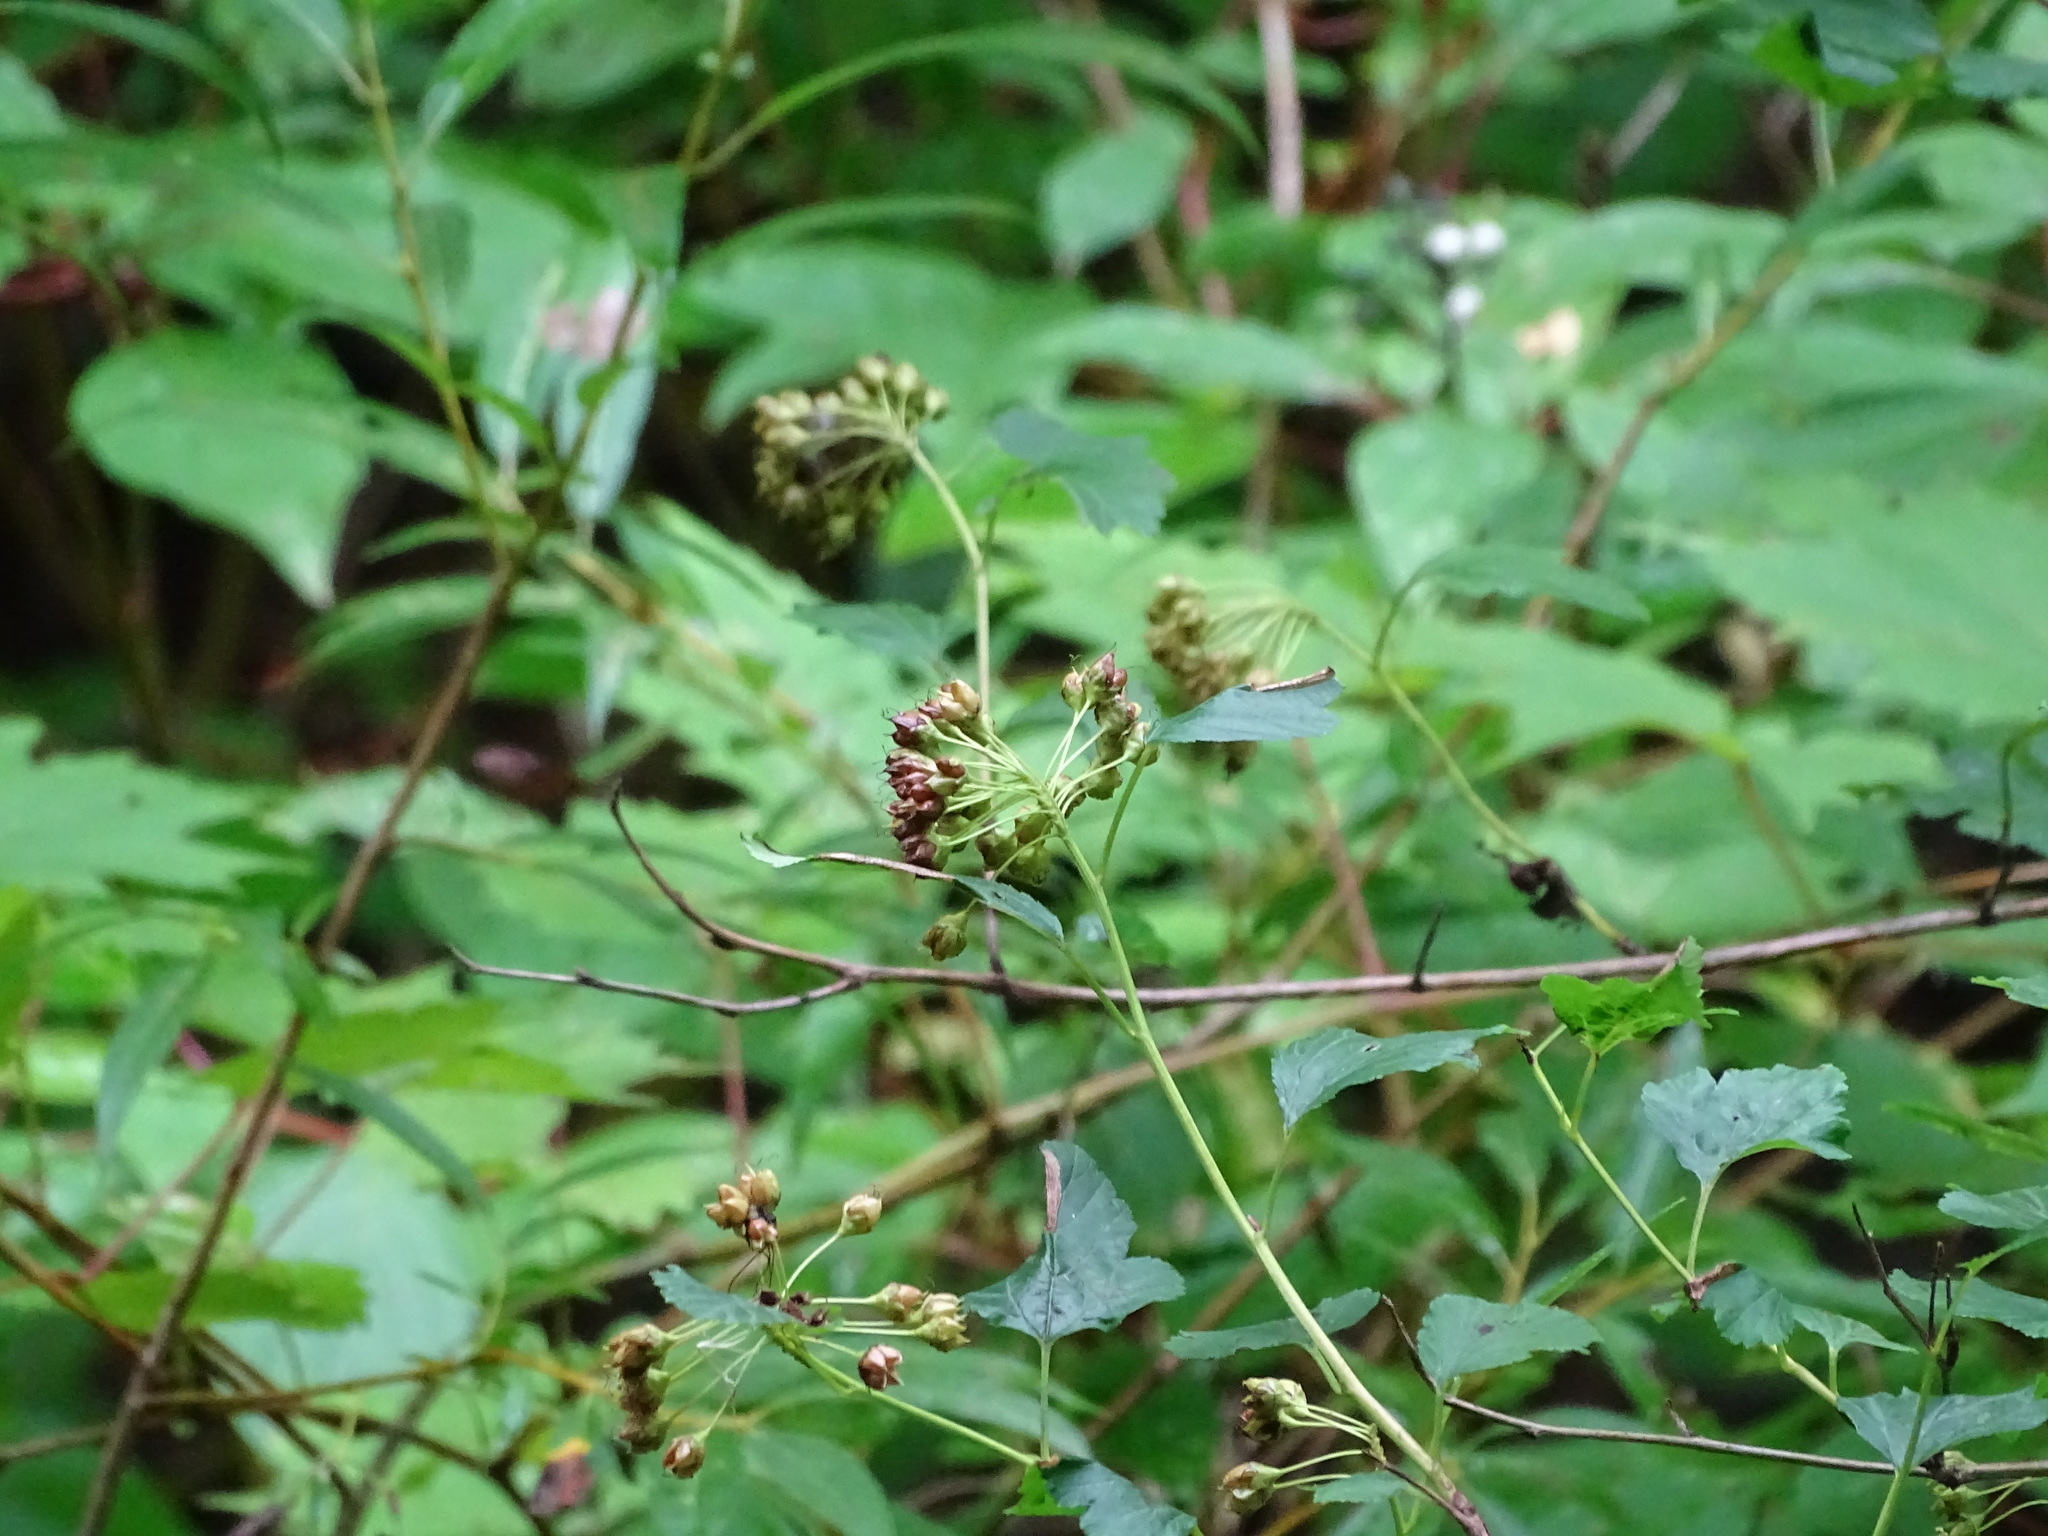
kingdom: Plantae
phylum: Tracheophyta
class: Magnoliopsida
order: Rosales
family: Rosaceae
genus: Physocarpus
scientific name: Physocarpus opulifolius
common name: Ninebark
